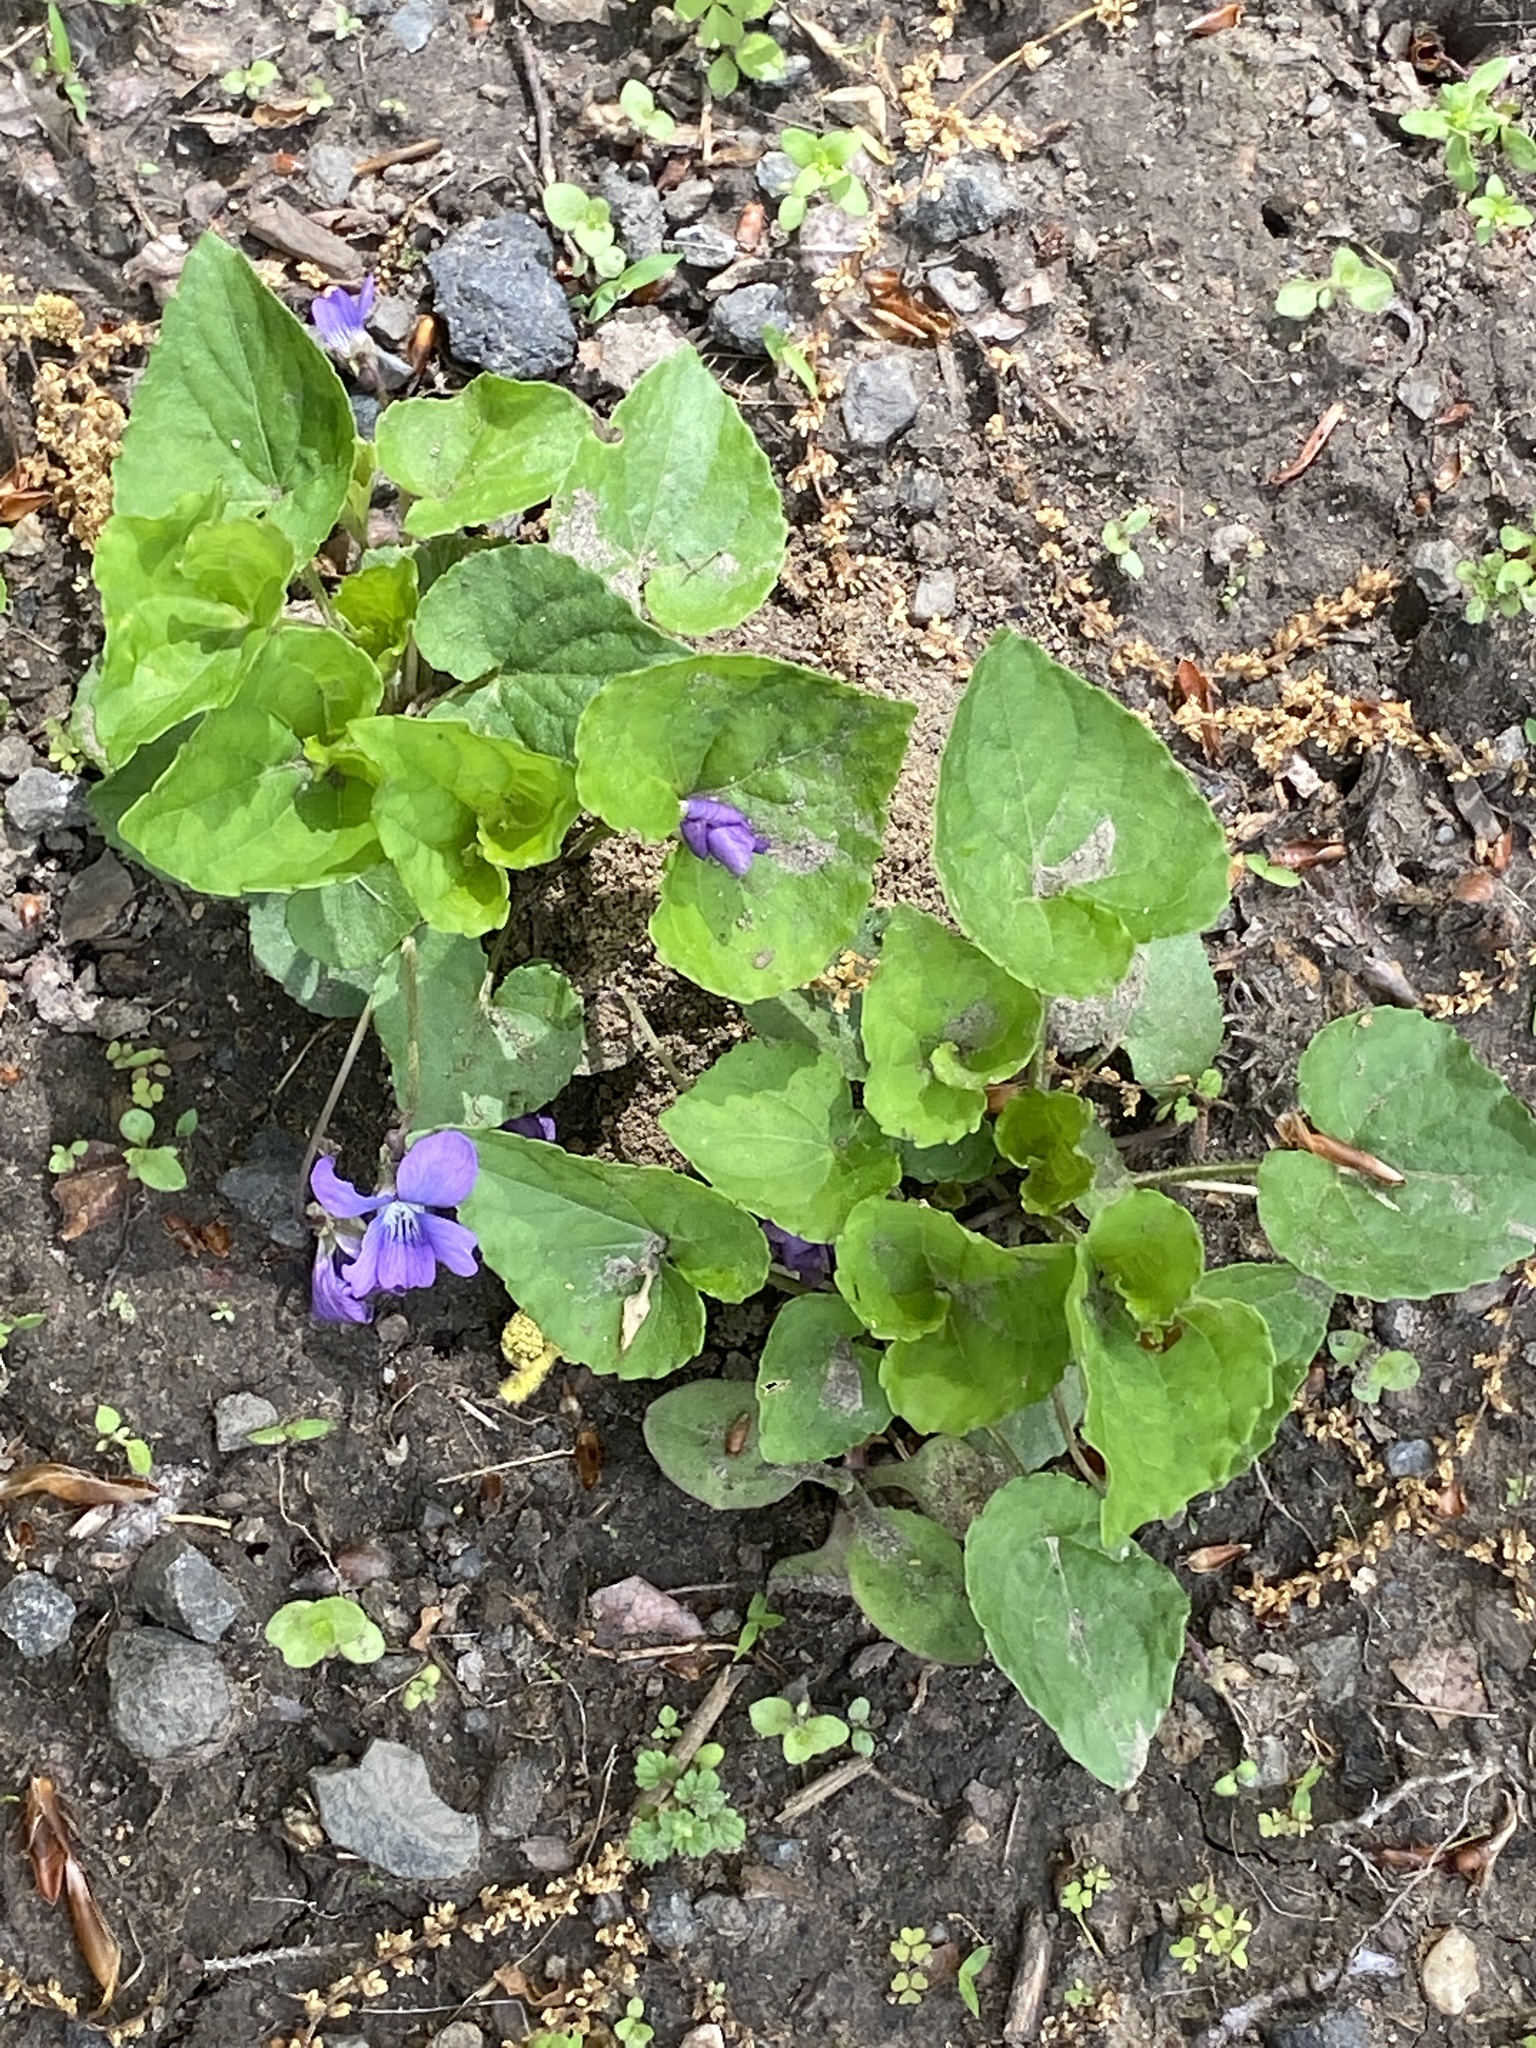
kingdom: Plantae
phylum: Tracheophyta
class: Magnoliopsida
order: Malpighiales
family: Violaceae
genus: Viola
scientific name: Viola sororia
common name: Dooryard violet
